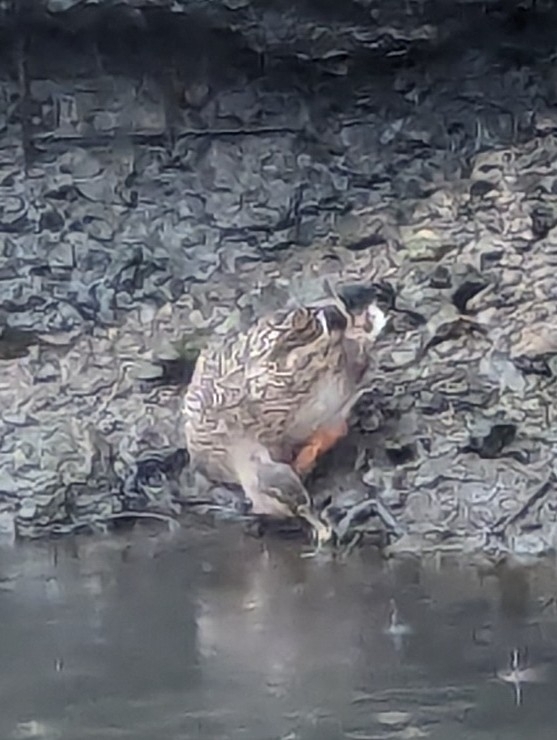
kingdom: Animalia
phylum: Chordata
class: Aves
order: Anseriformes
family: Anatidae
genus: Anas
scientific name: Anas platyrhynchos
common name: Mallard
